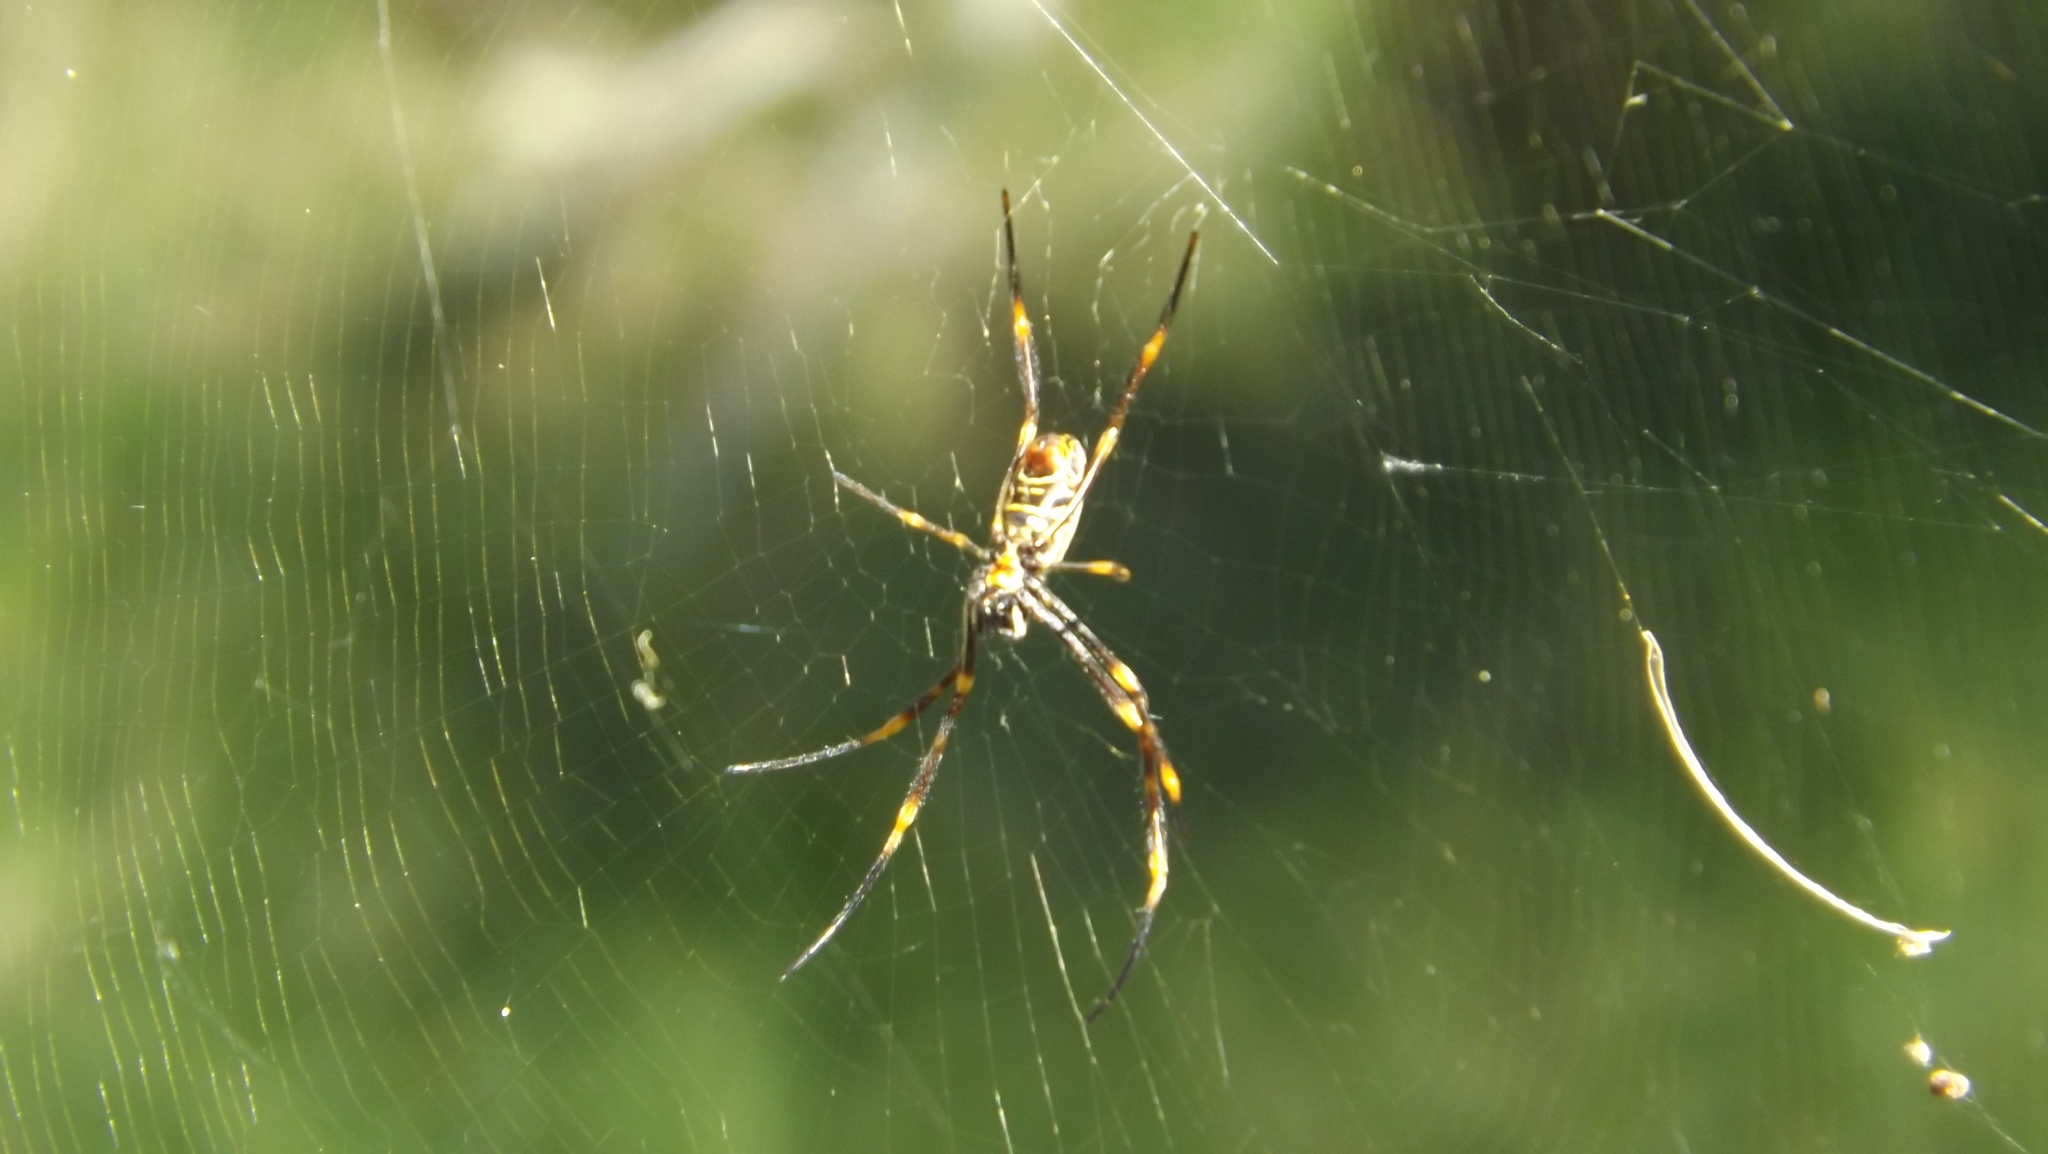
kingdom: Animalia
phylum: Arthropoda
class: Arachnida
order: Araneae
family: Araneidae
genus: Trichonephila
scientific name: Trichonephila plumipes
